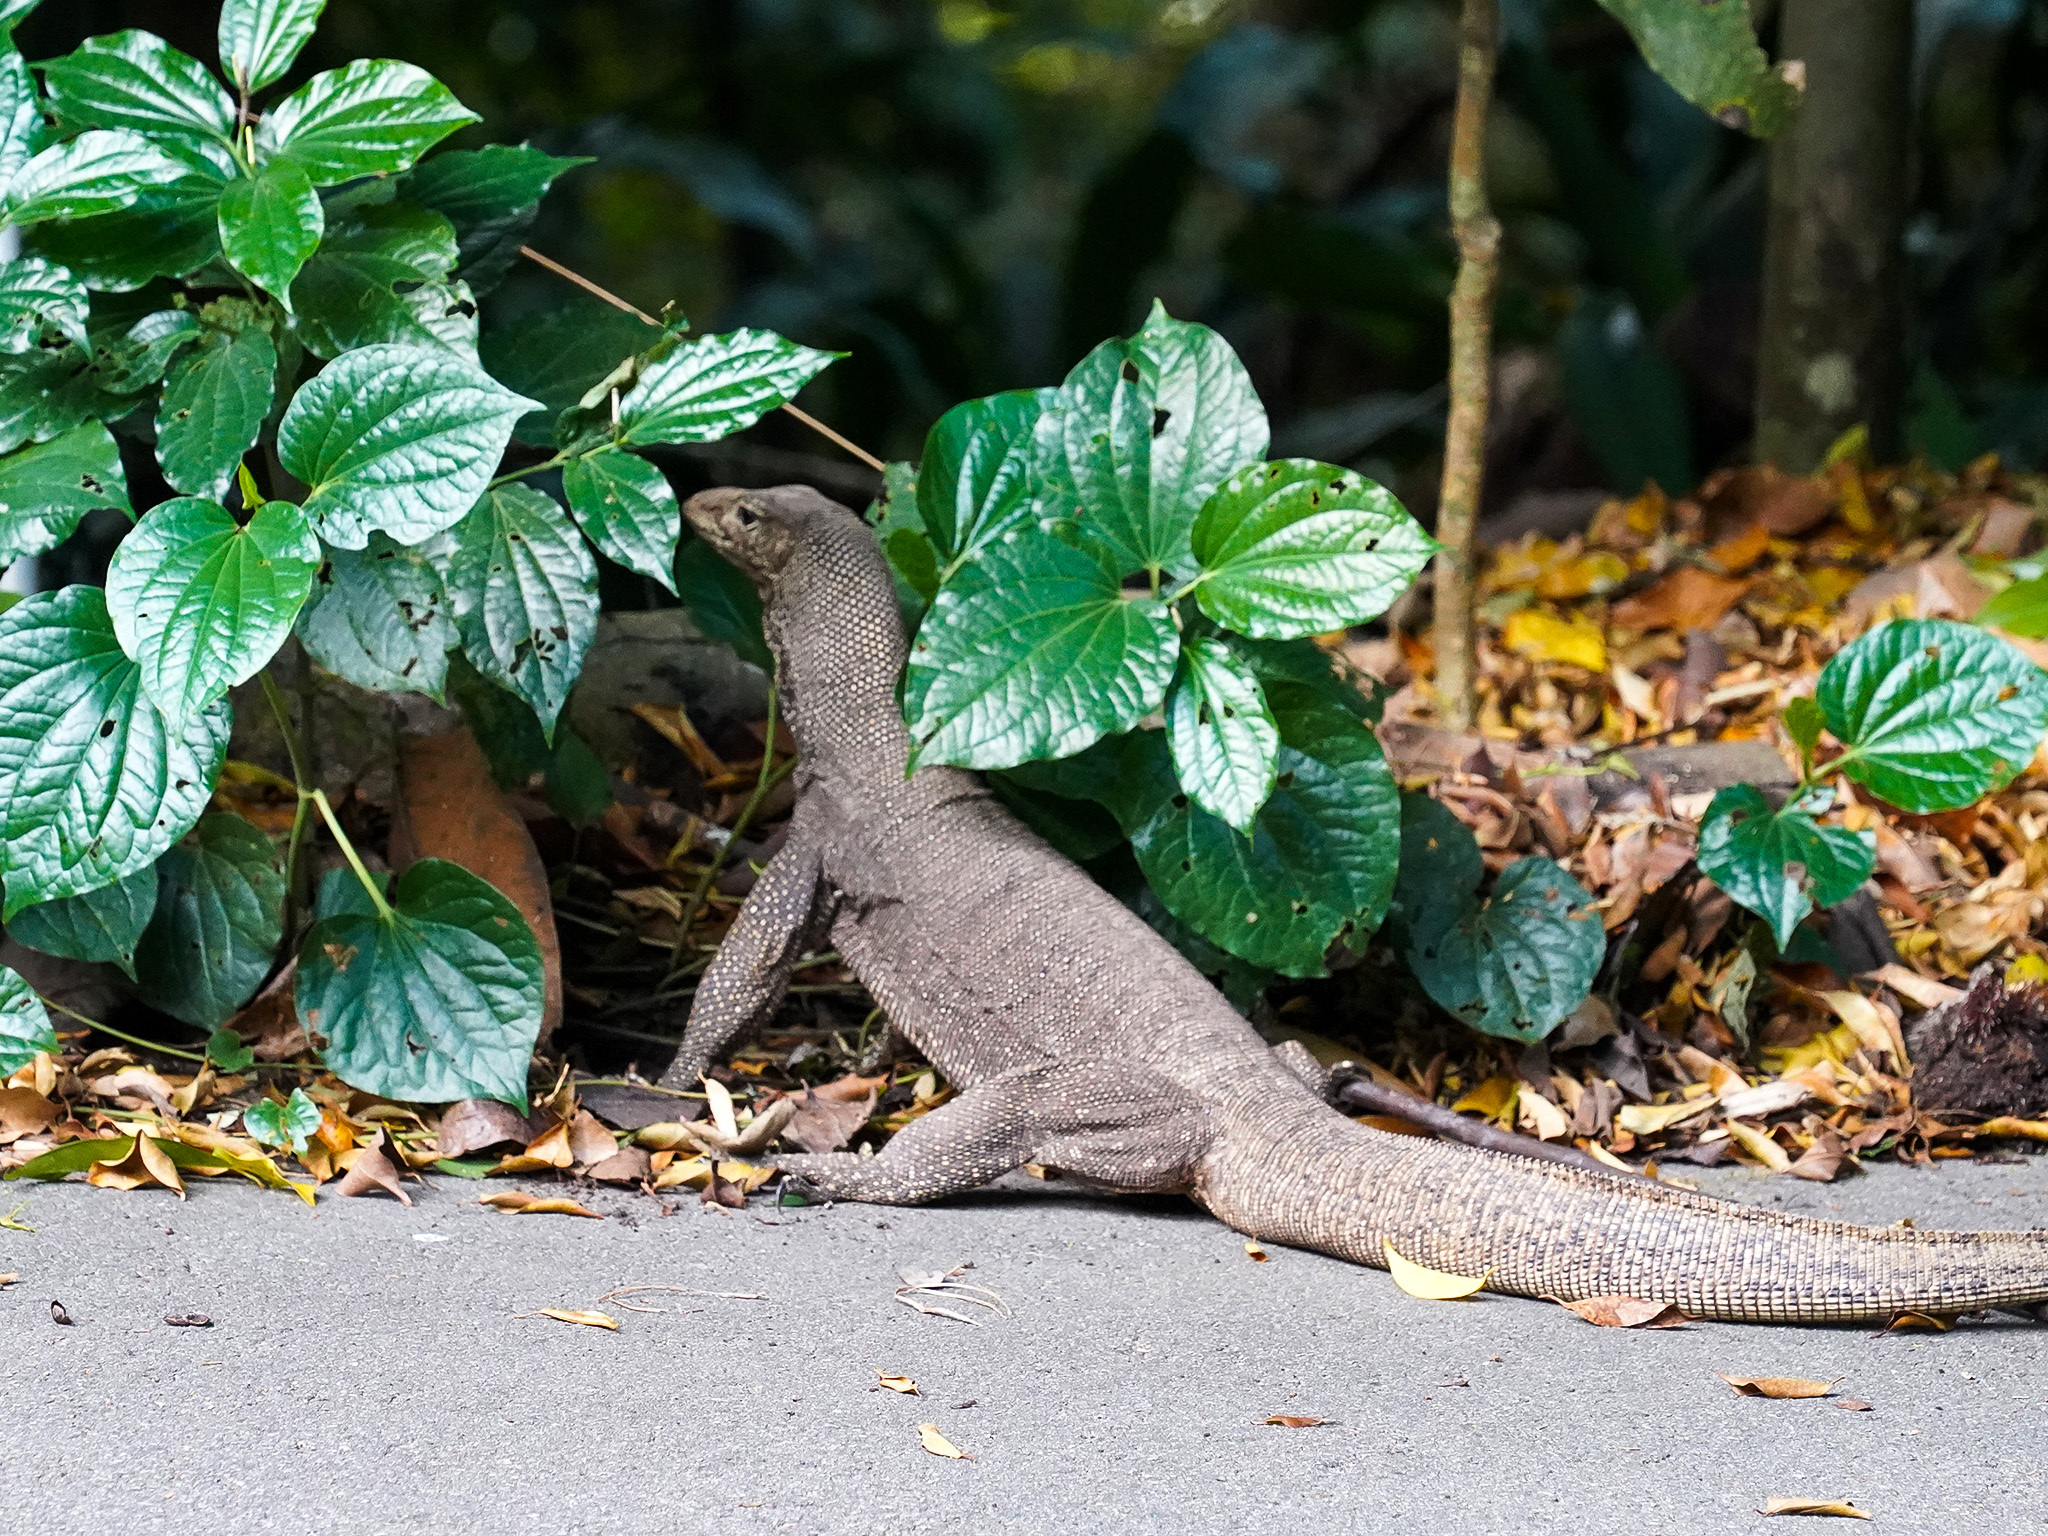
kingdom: Animalia
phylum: Chordata
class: Squamata
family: Varanidae
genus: Varanus
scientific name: Varanus nebulosus
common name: Clouded monitor
